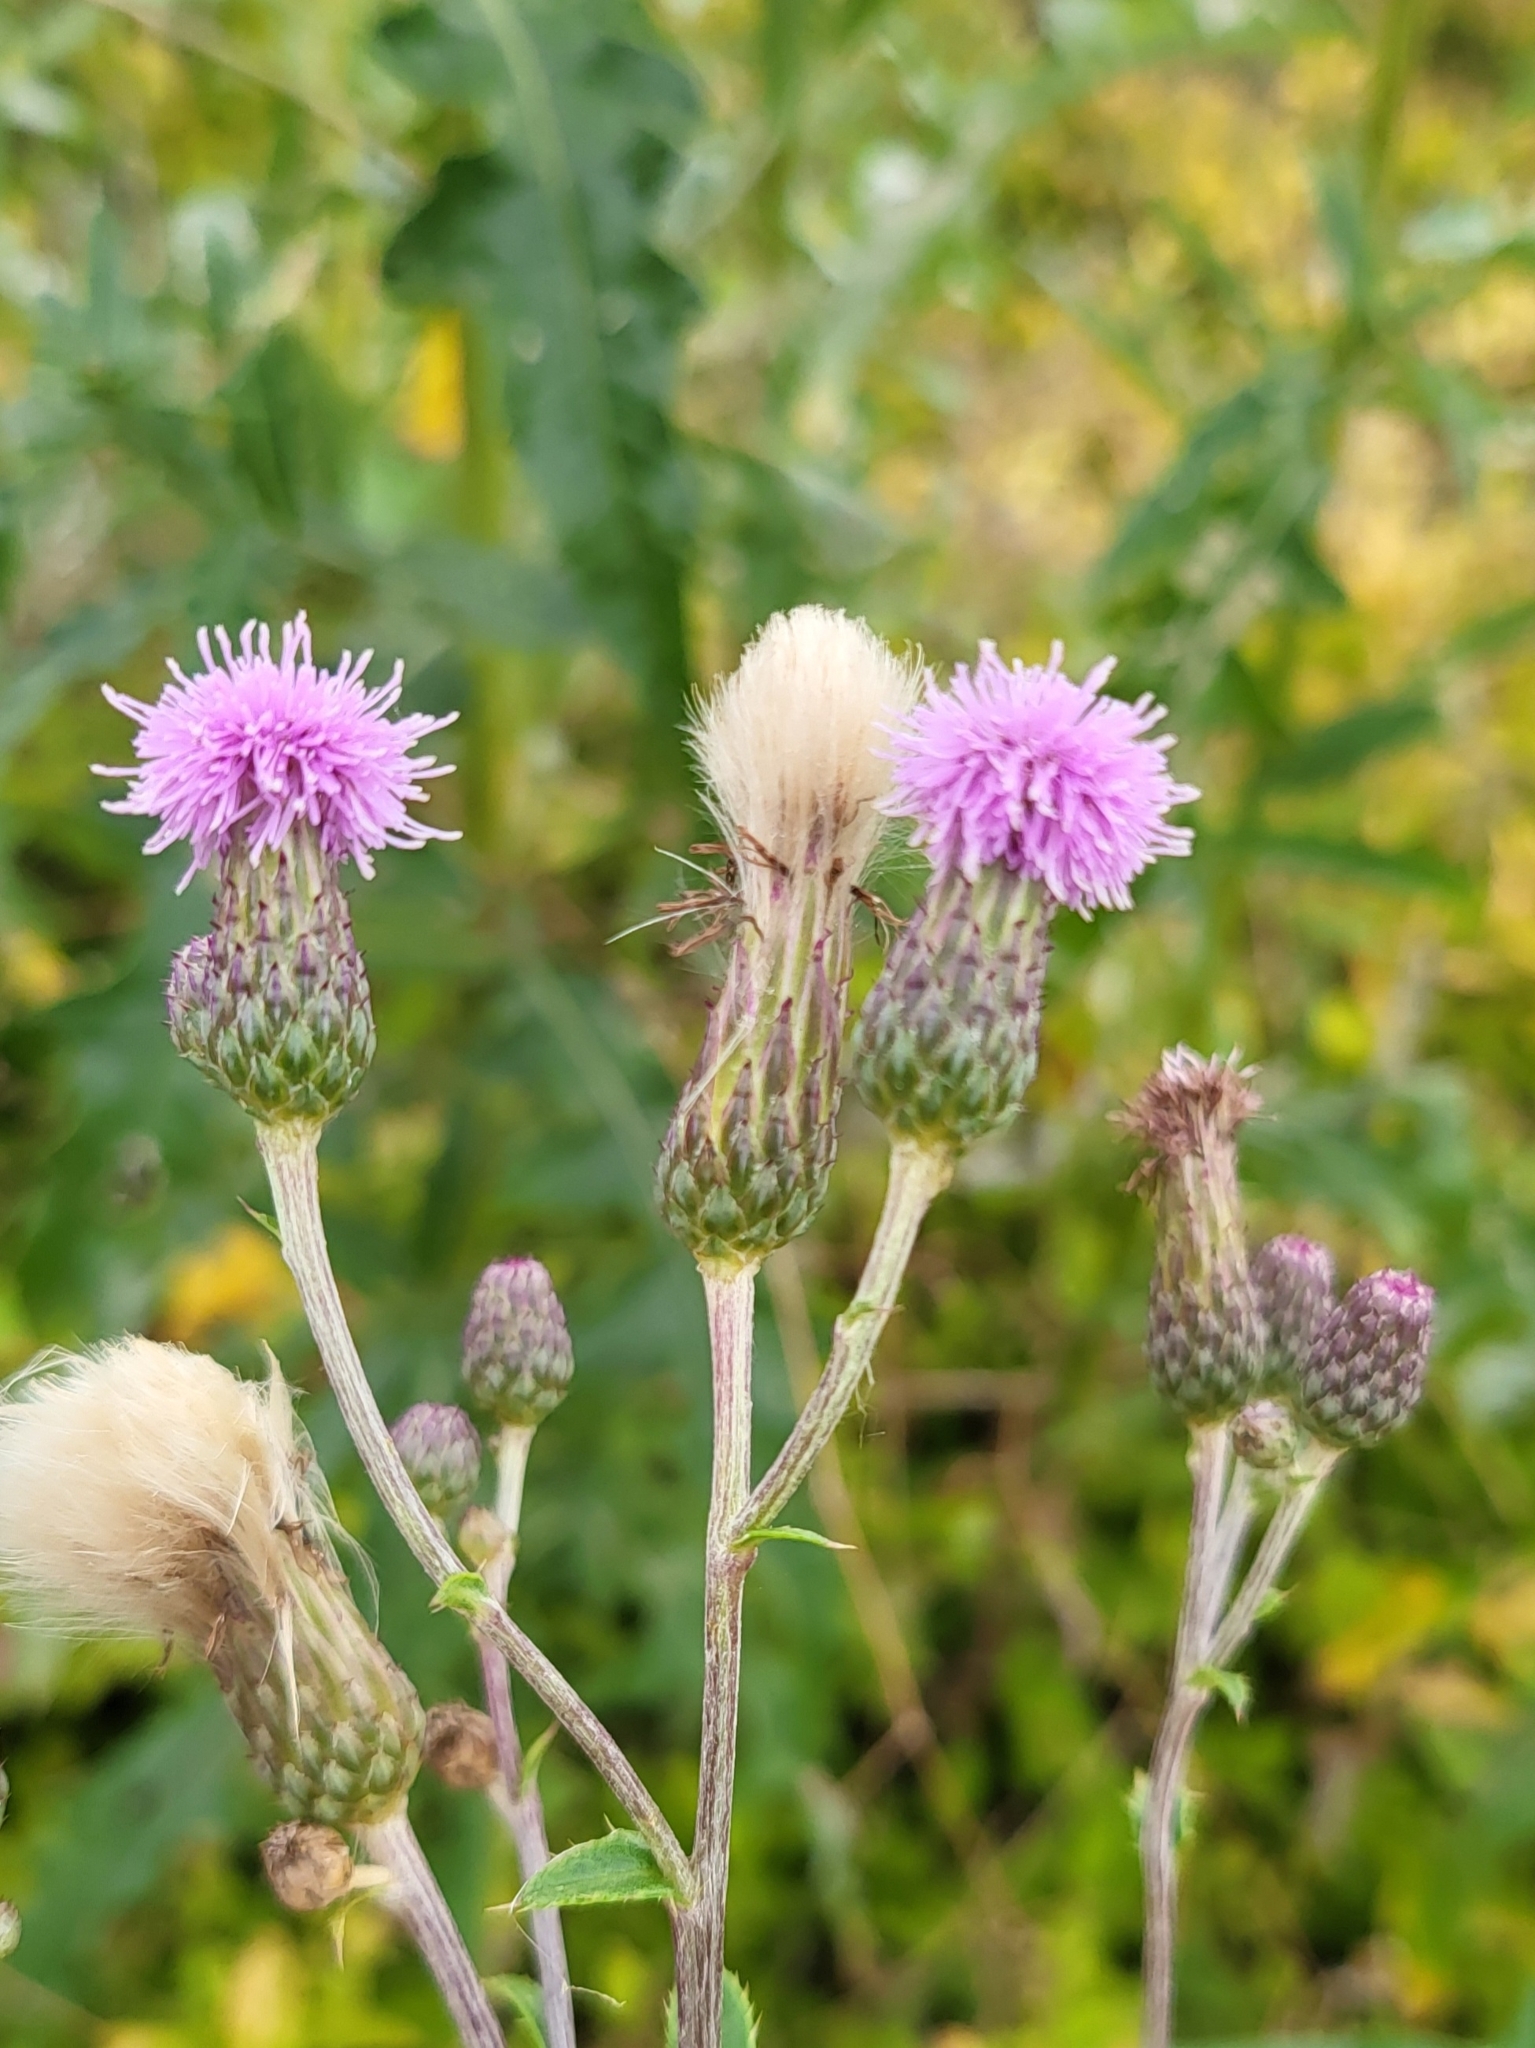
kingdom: Plantae
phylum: Tracheophyta
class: Magnoliopsida
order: Asterales
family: Asteraceae
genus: Cirsium
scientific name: Cirsium arvense
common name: Creeping thistle
